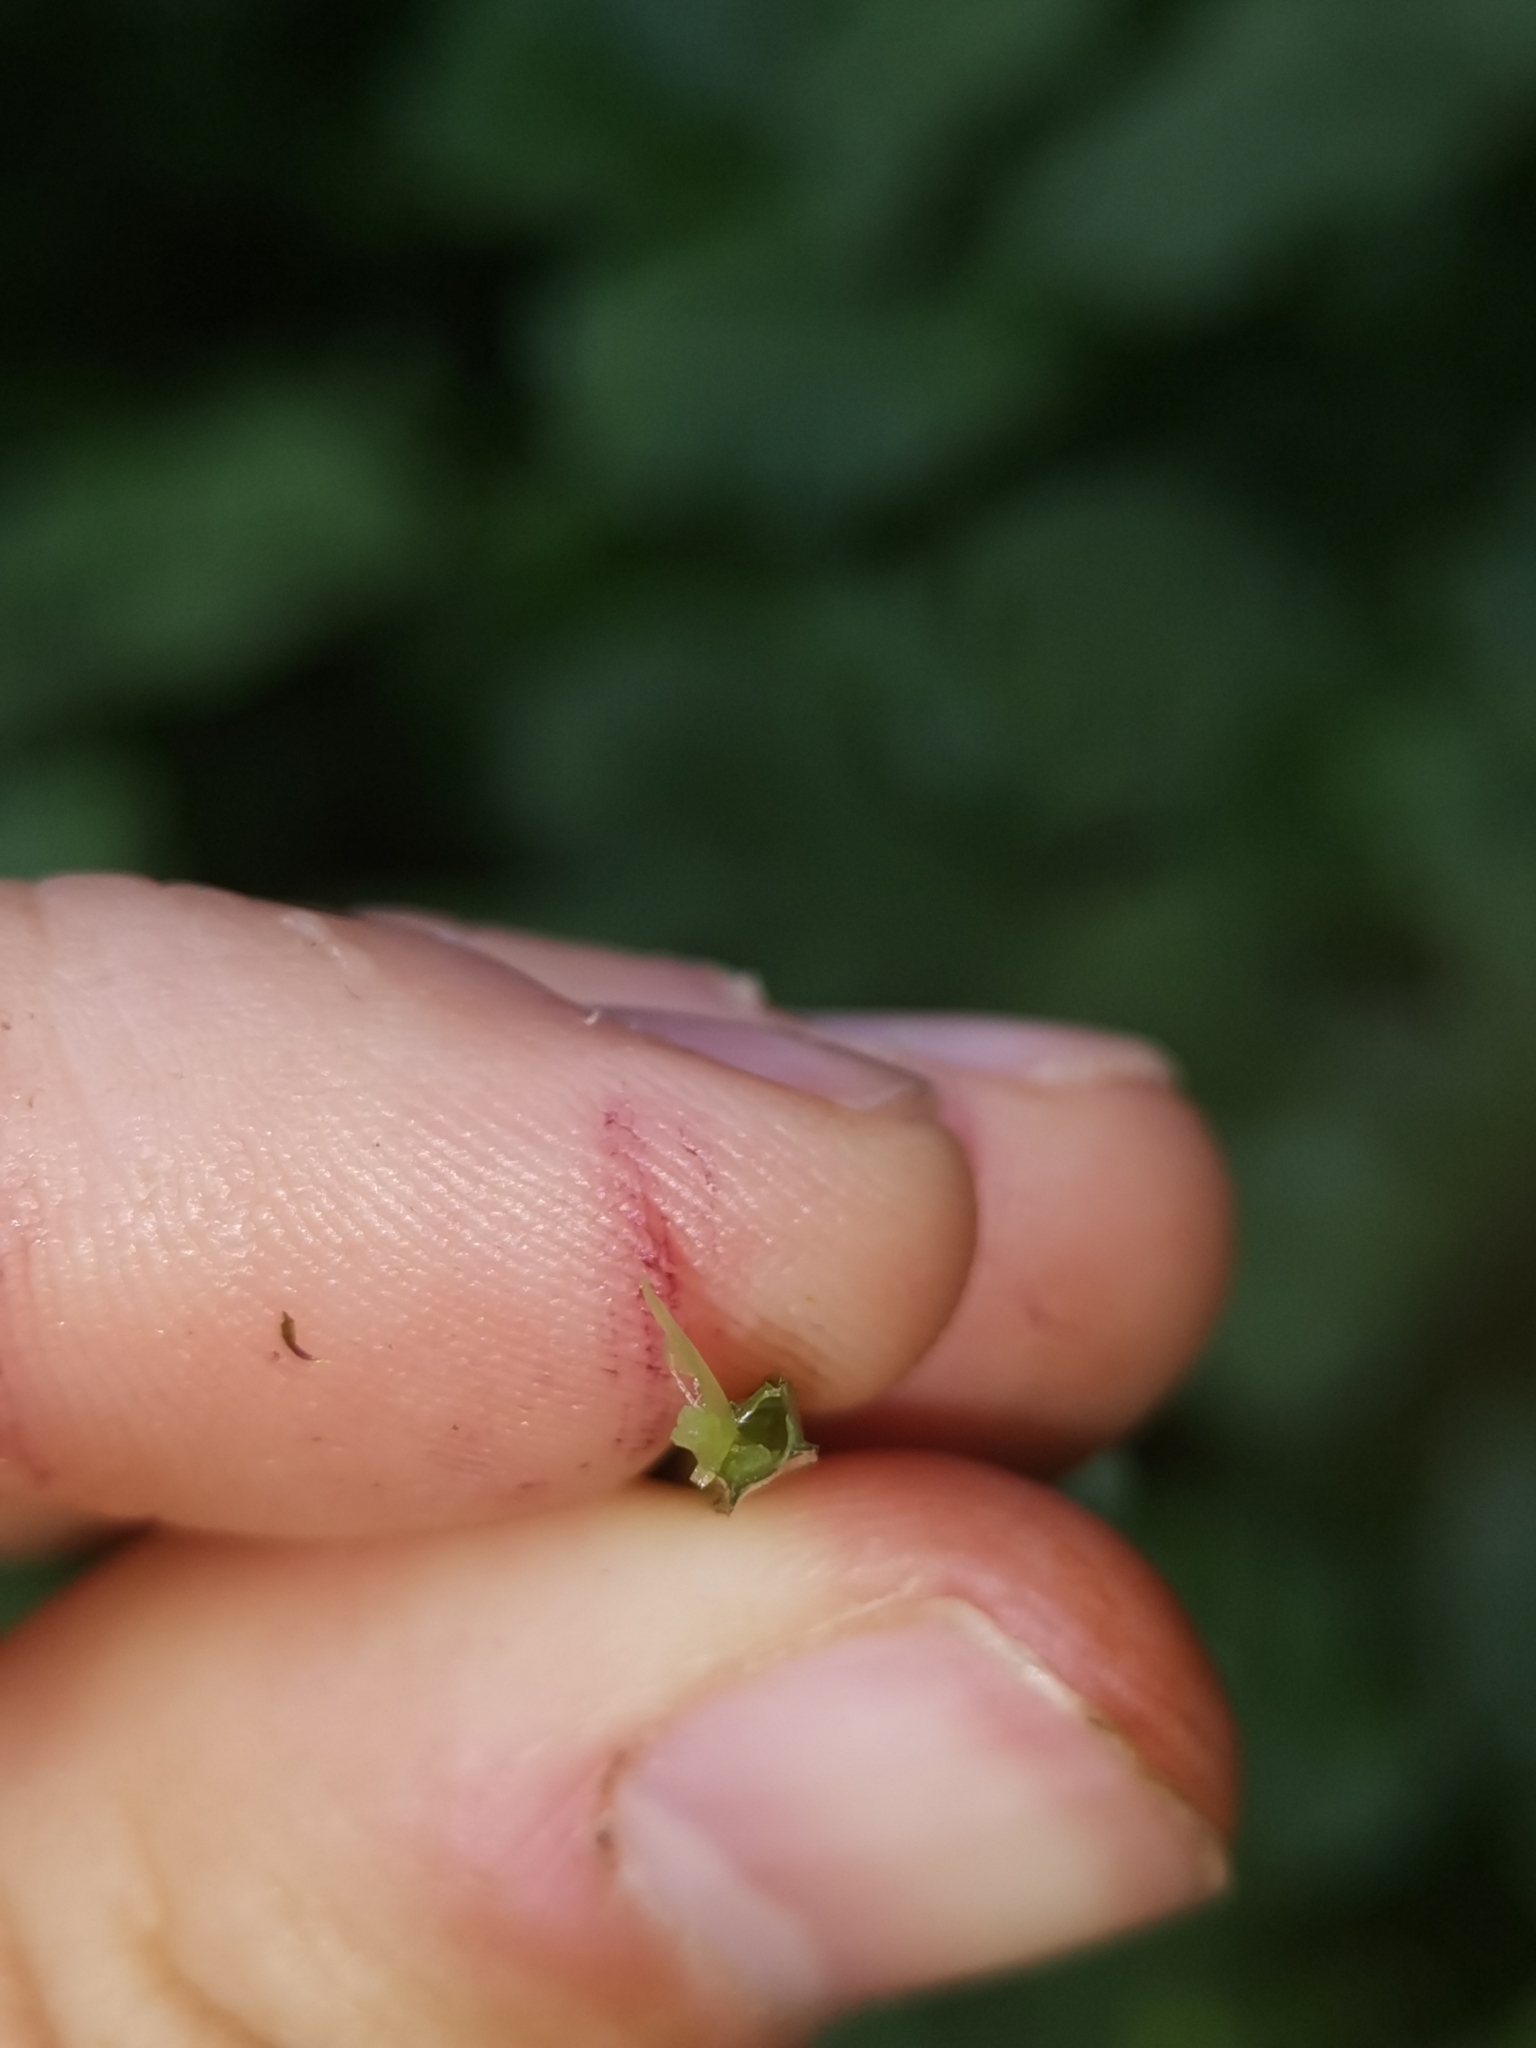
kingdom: Plantae
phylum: Tracheophyta
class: Magnoliopsida
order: Malpighiales
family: Hypericaceae
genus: Hypericum
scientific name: Hypericum tetrapterum
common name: Square-stalked st. john's-wort
